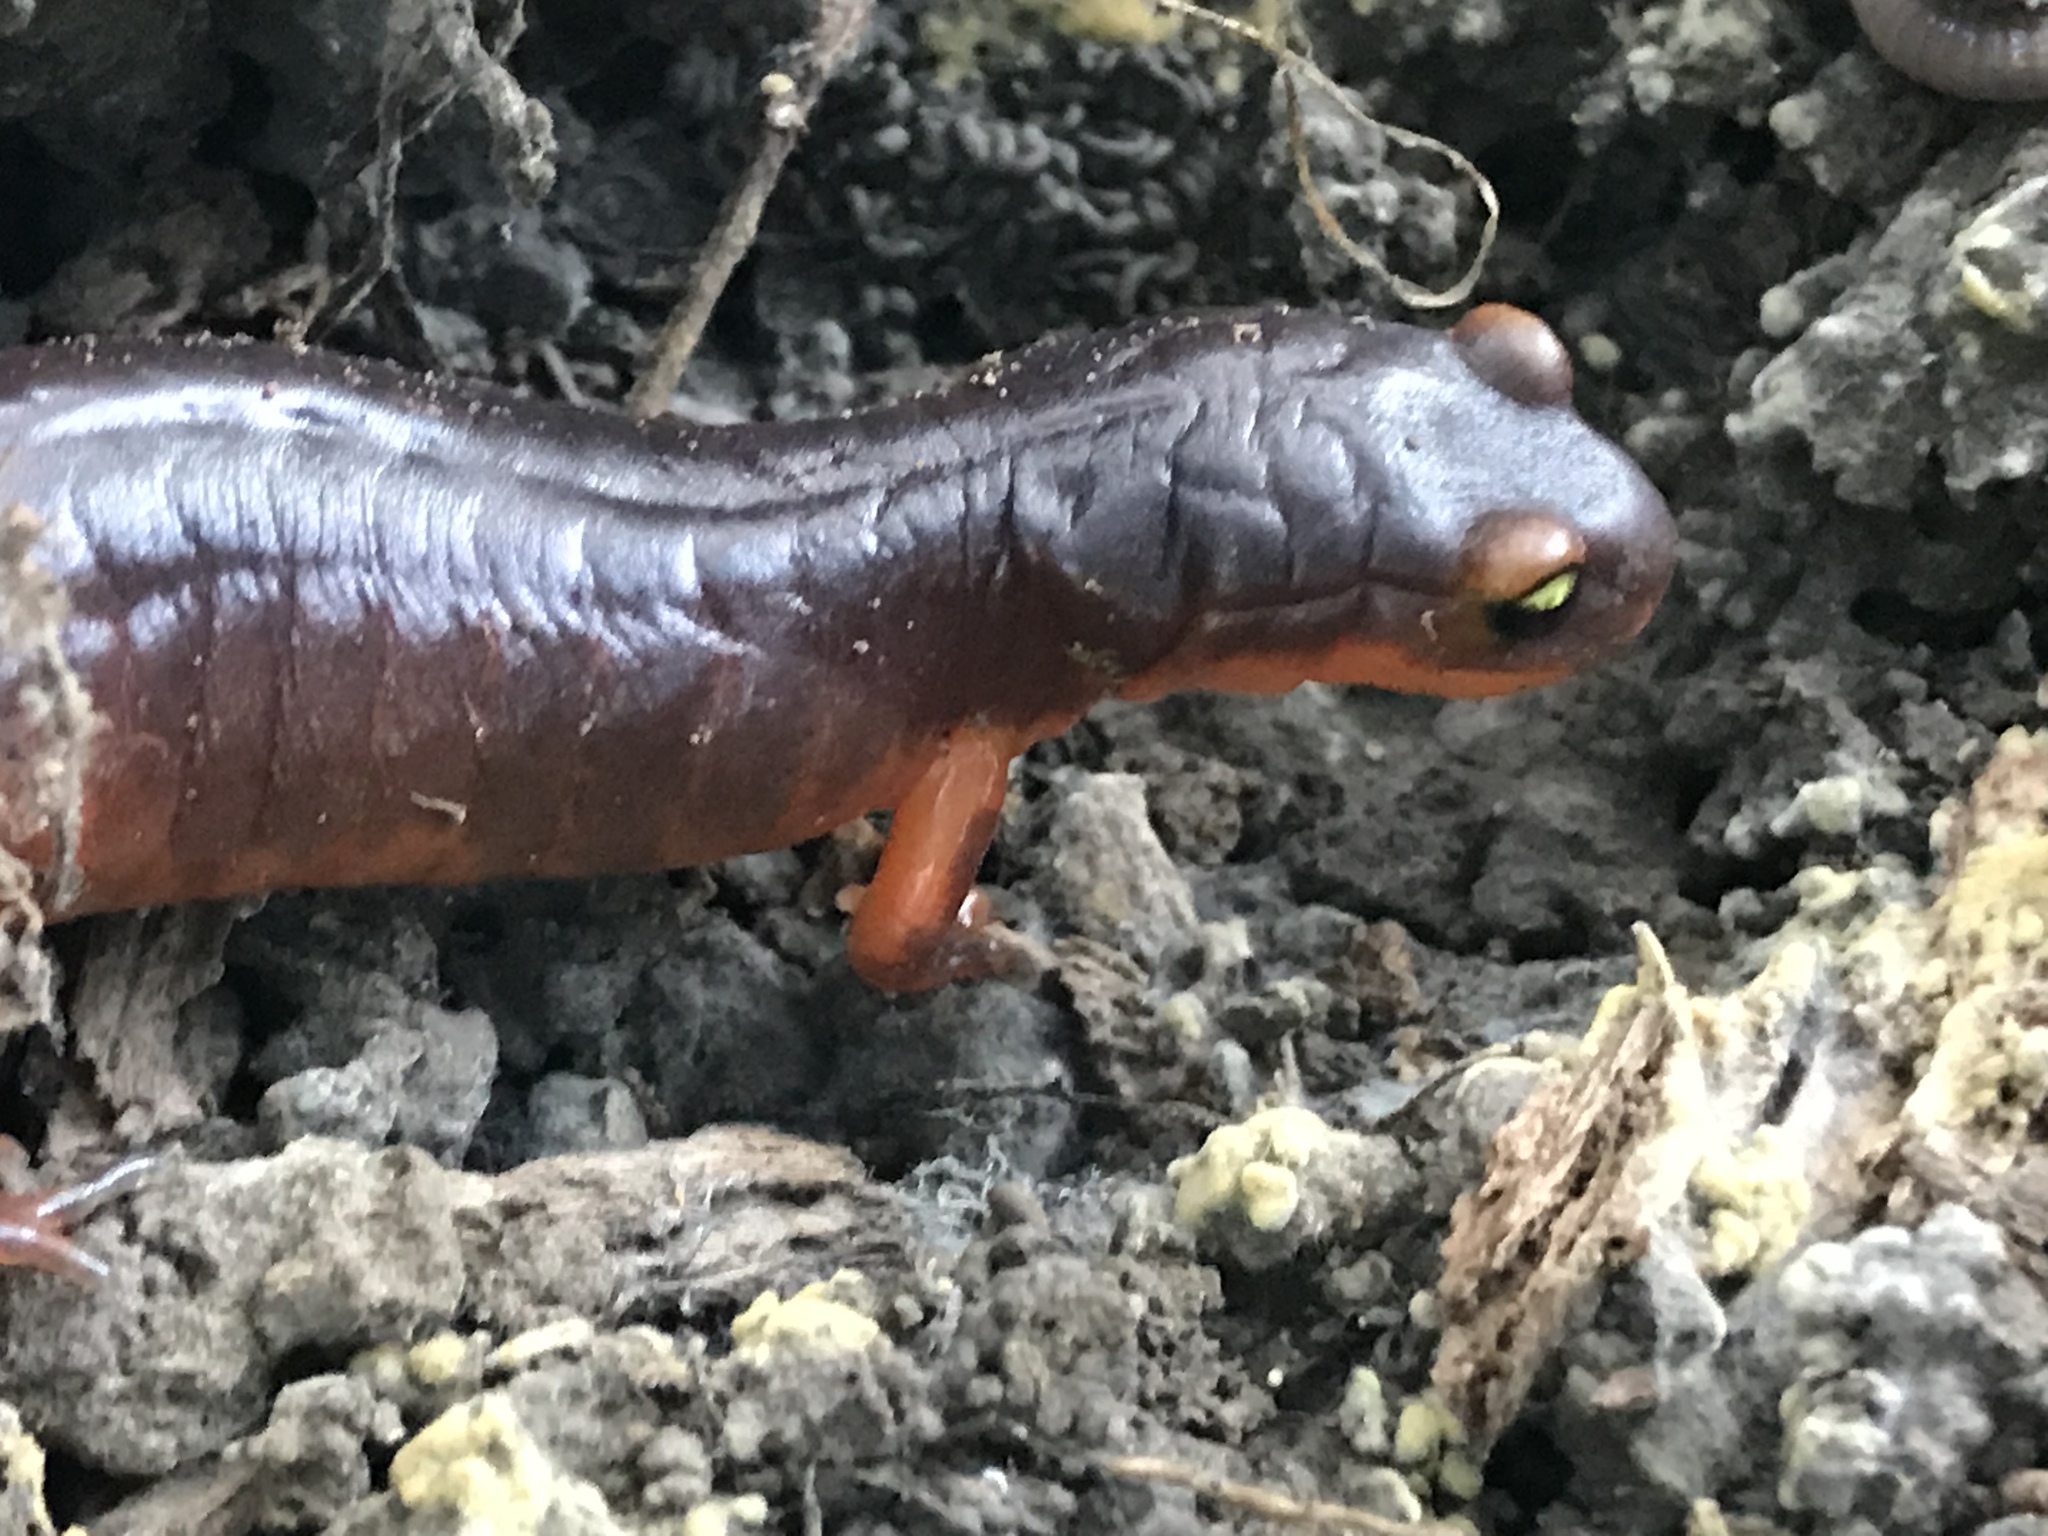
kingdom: Animalia
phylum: Chordata
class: Amphibia
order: Caudata
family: Plethodontidae
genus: Ensatina
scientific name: Ensatina eschscholtzii
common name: Ensatina
